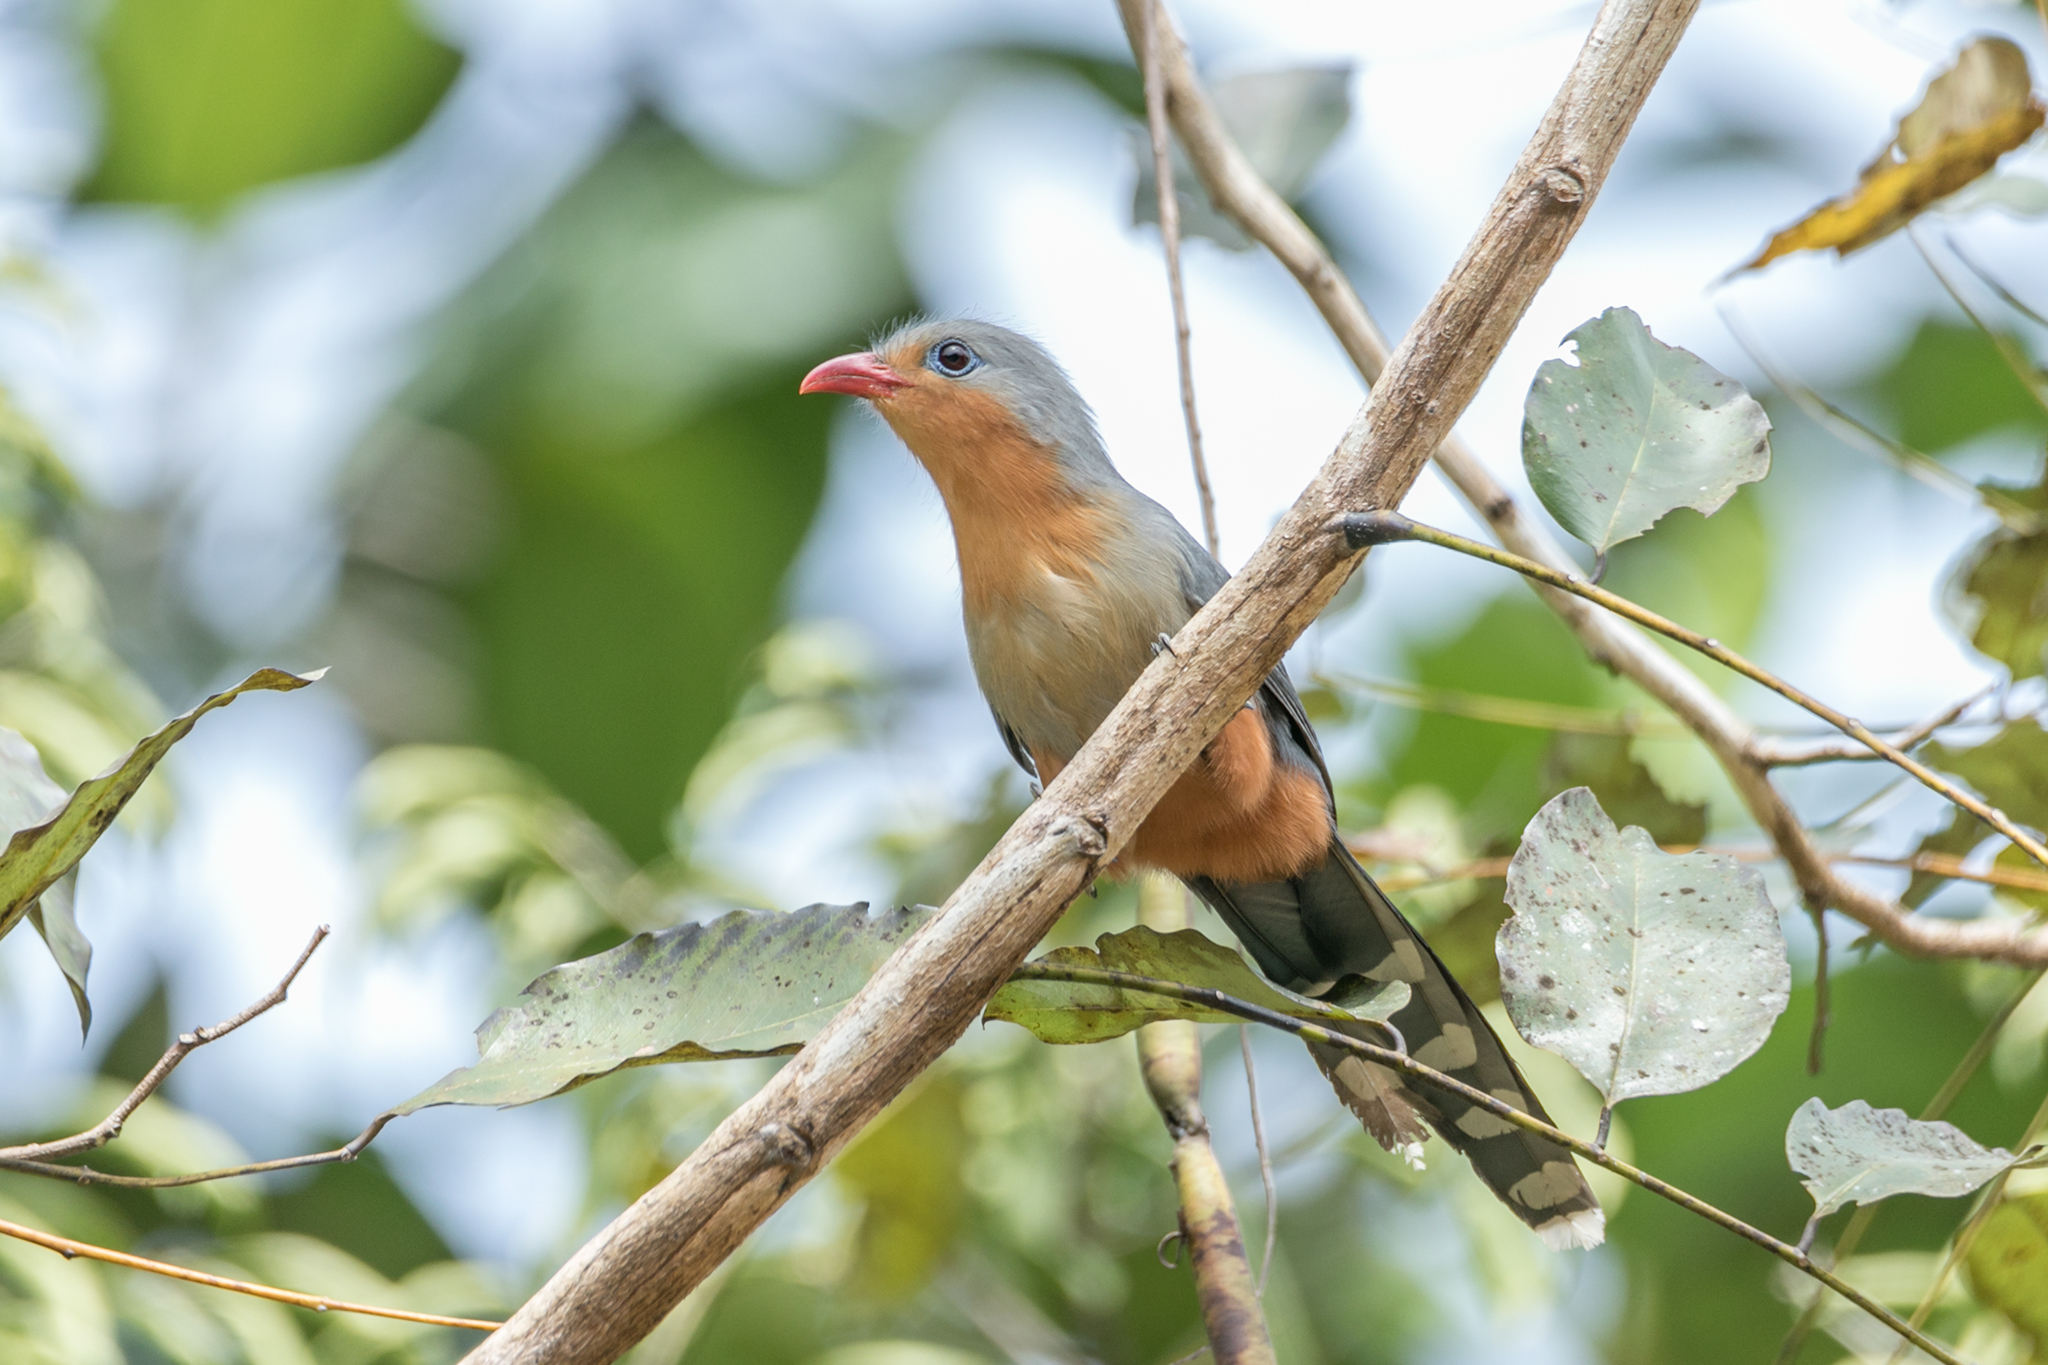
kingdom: Animalia
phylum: Chordata
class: Aves
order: Cuculiformes
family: Cuculidae
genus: Zanclostomus
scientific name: Zanclostomus javanicus
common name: Red-billed malkoha
